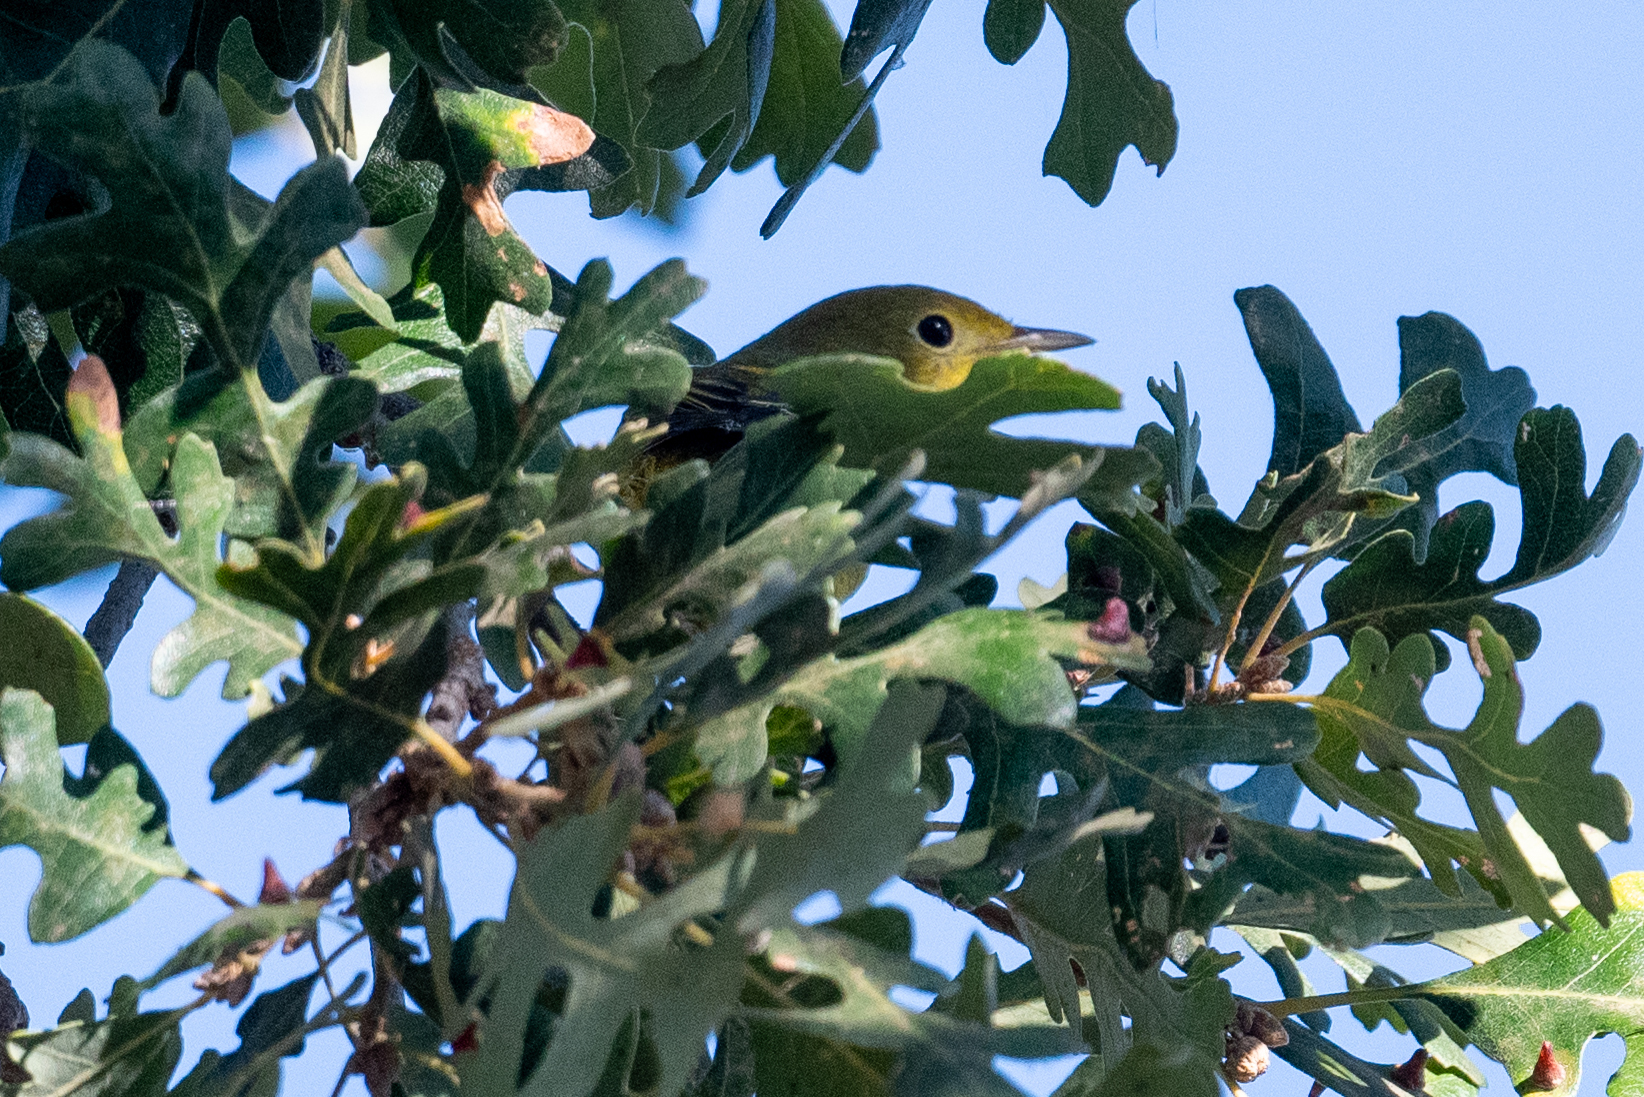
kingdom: Animalia
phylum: Chordata
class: Aves
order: Passeriformes
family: Parulidae
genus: Setophaga
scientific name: Setophaga petechia
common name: Yellow warbler
